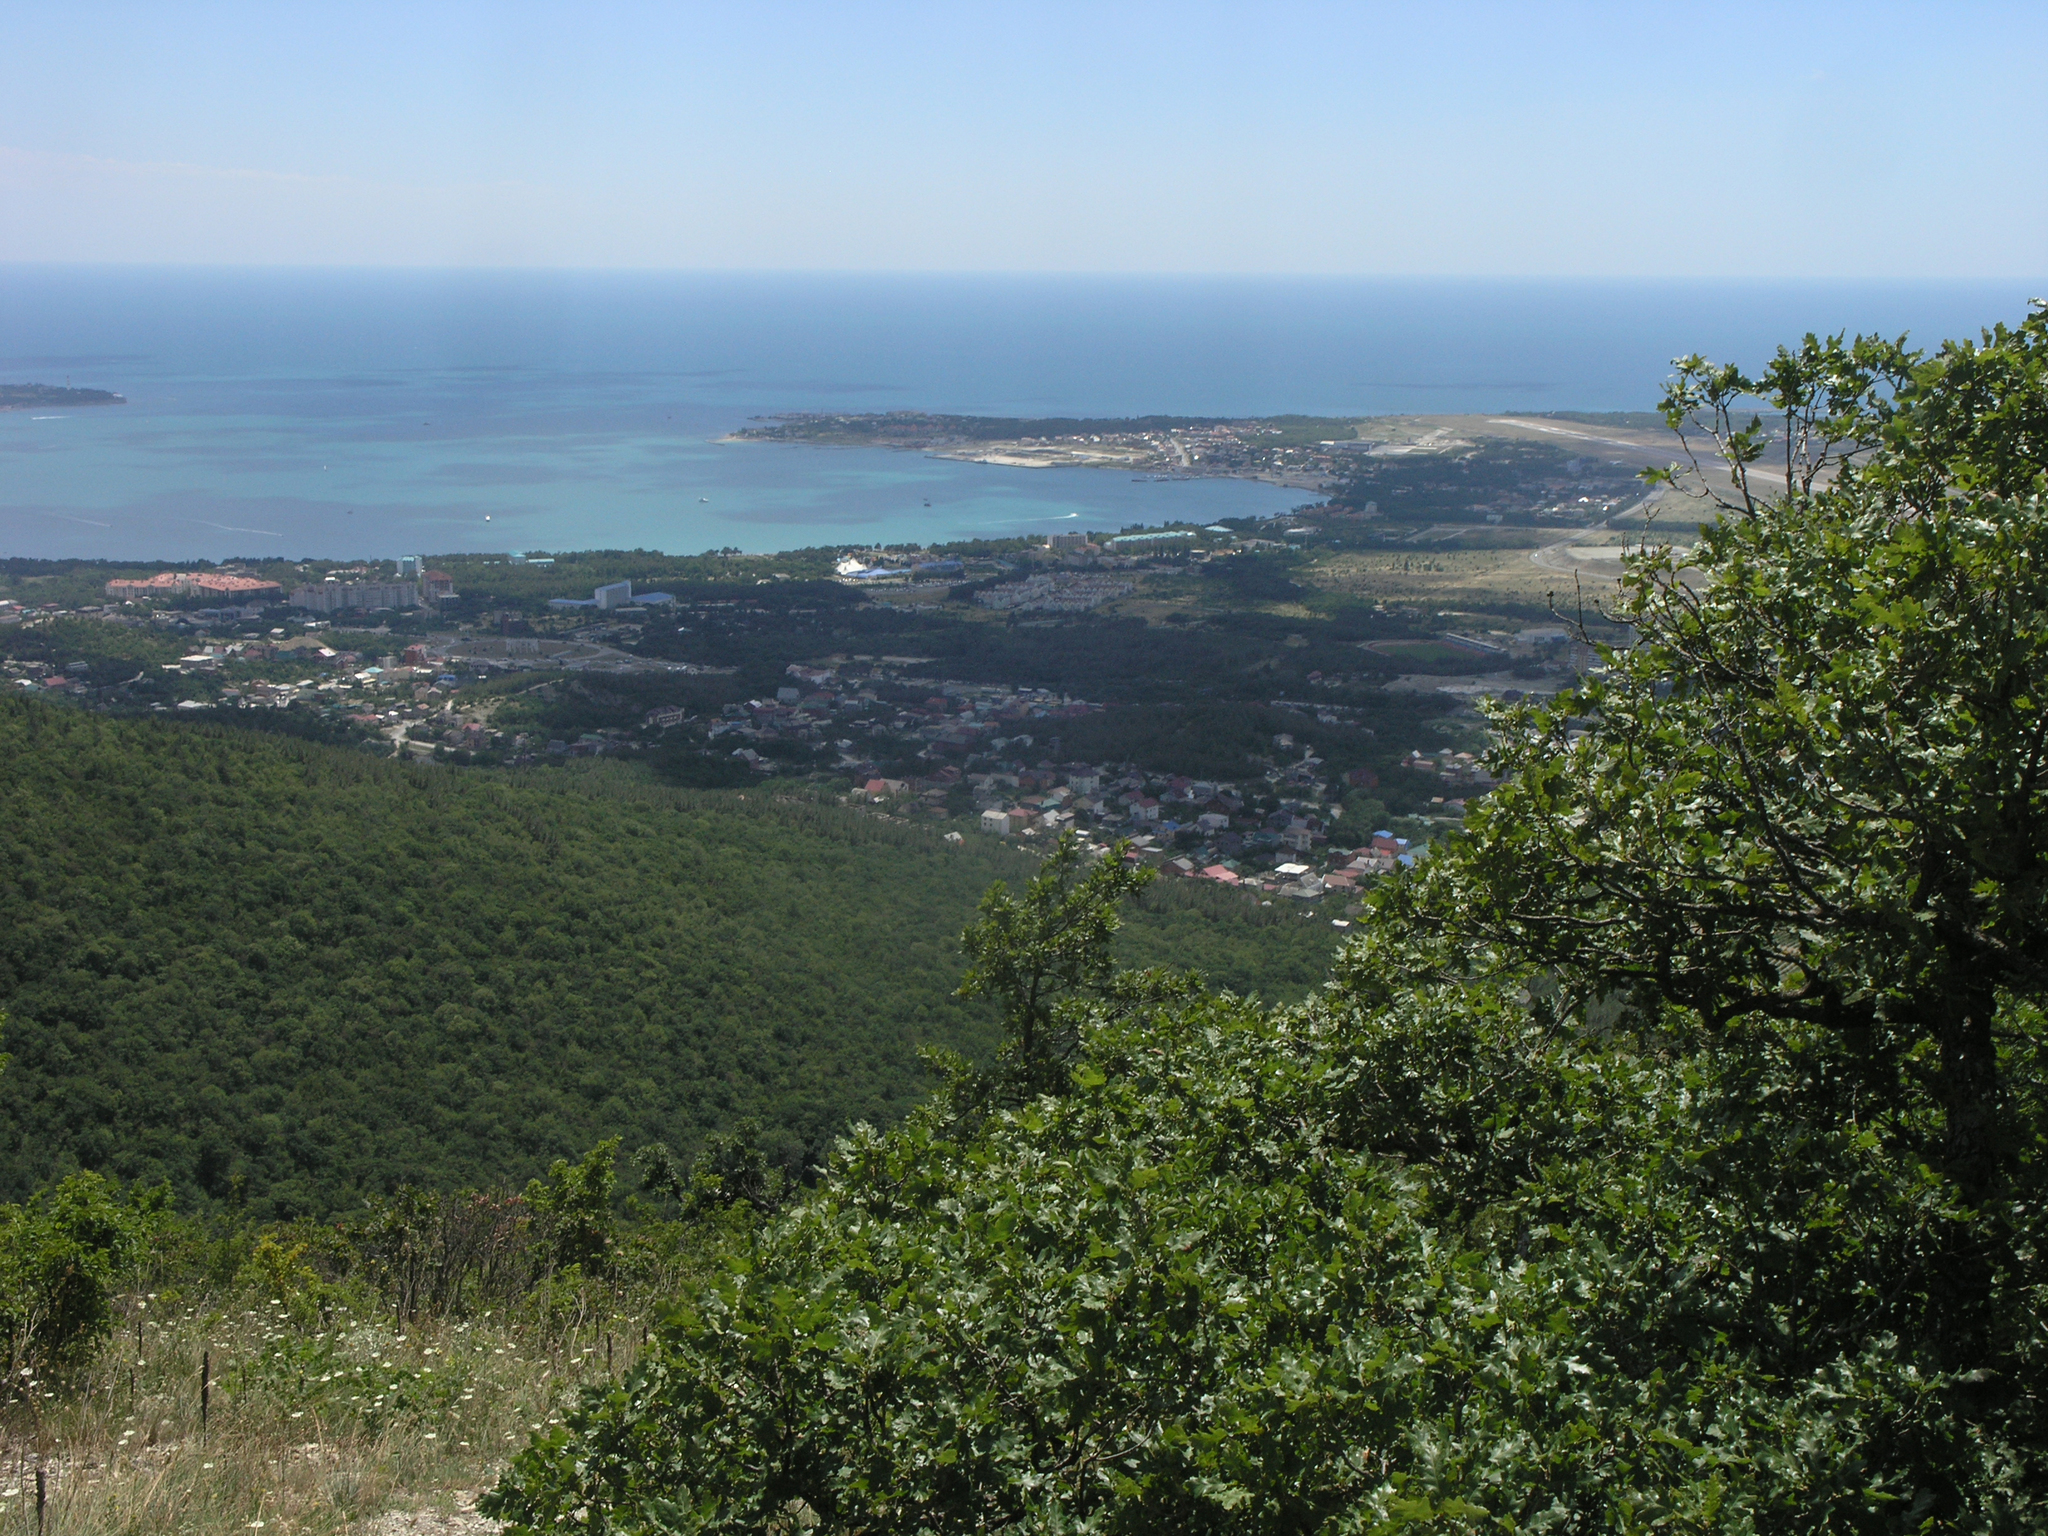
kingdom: Plantae
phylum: Tracheophyta
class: Magnoliopsida
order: Fagales
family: Fagaceae
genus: Quercus
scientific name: Quercus pubescens
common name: Downy oak
